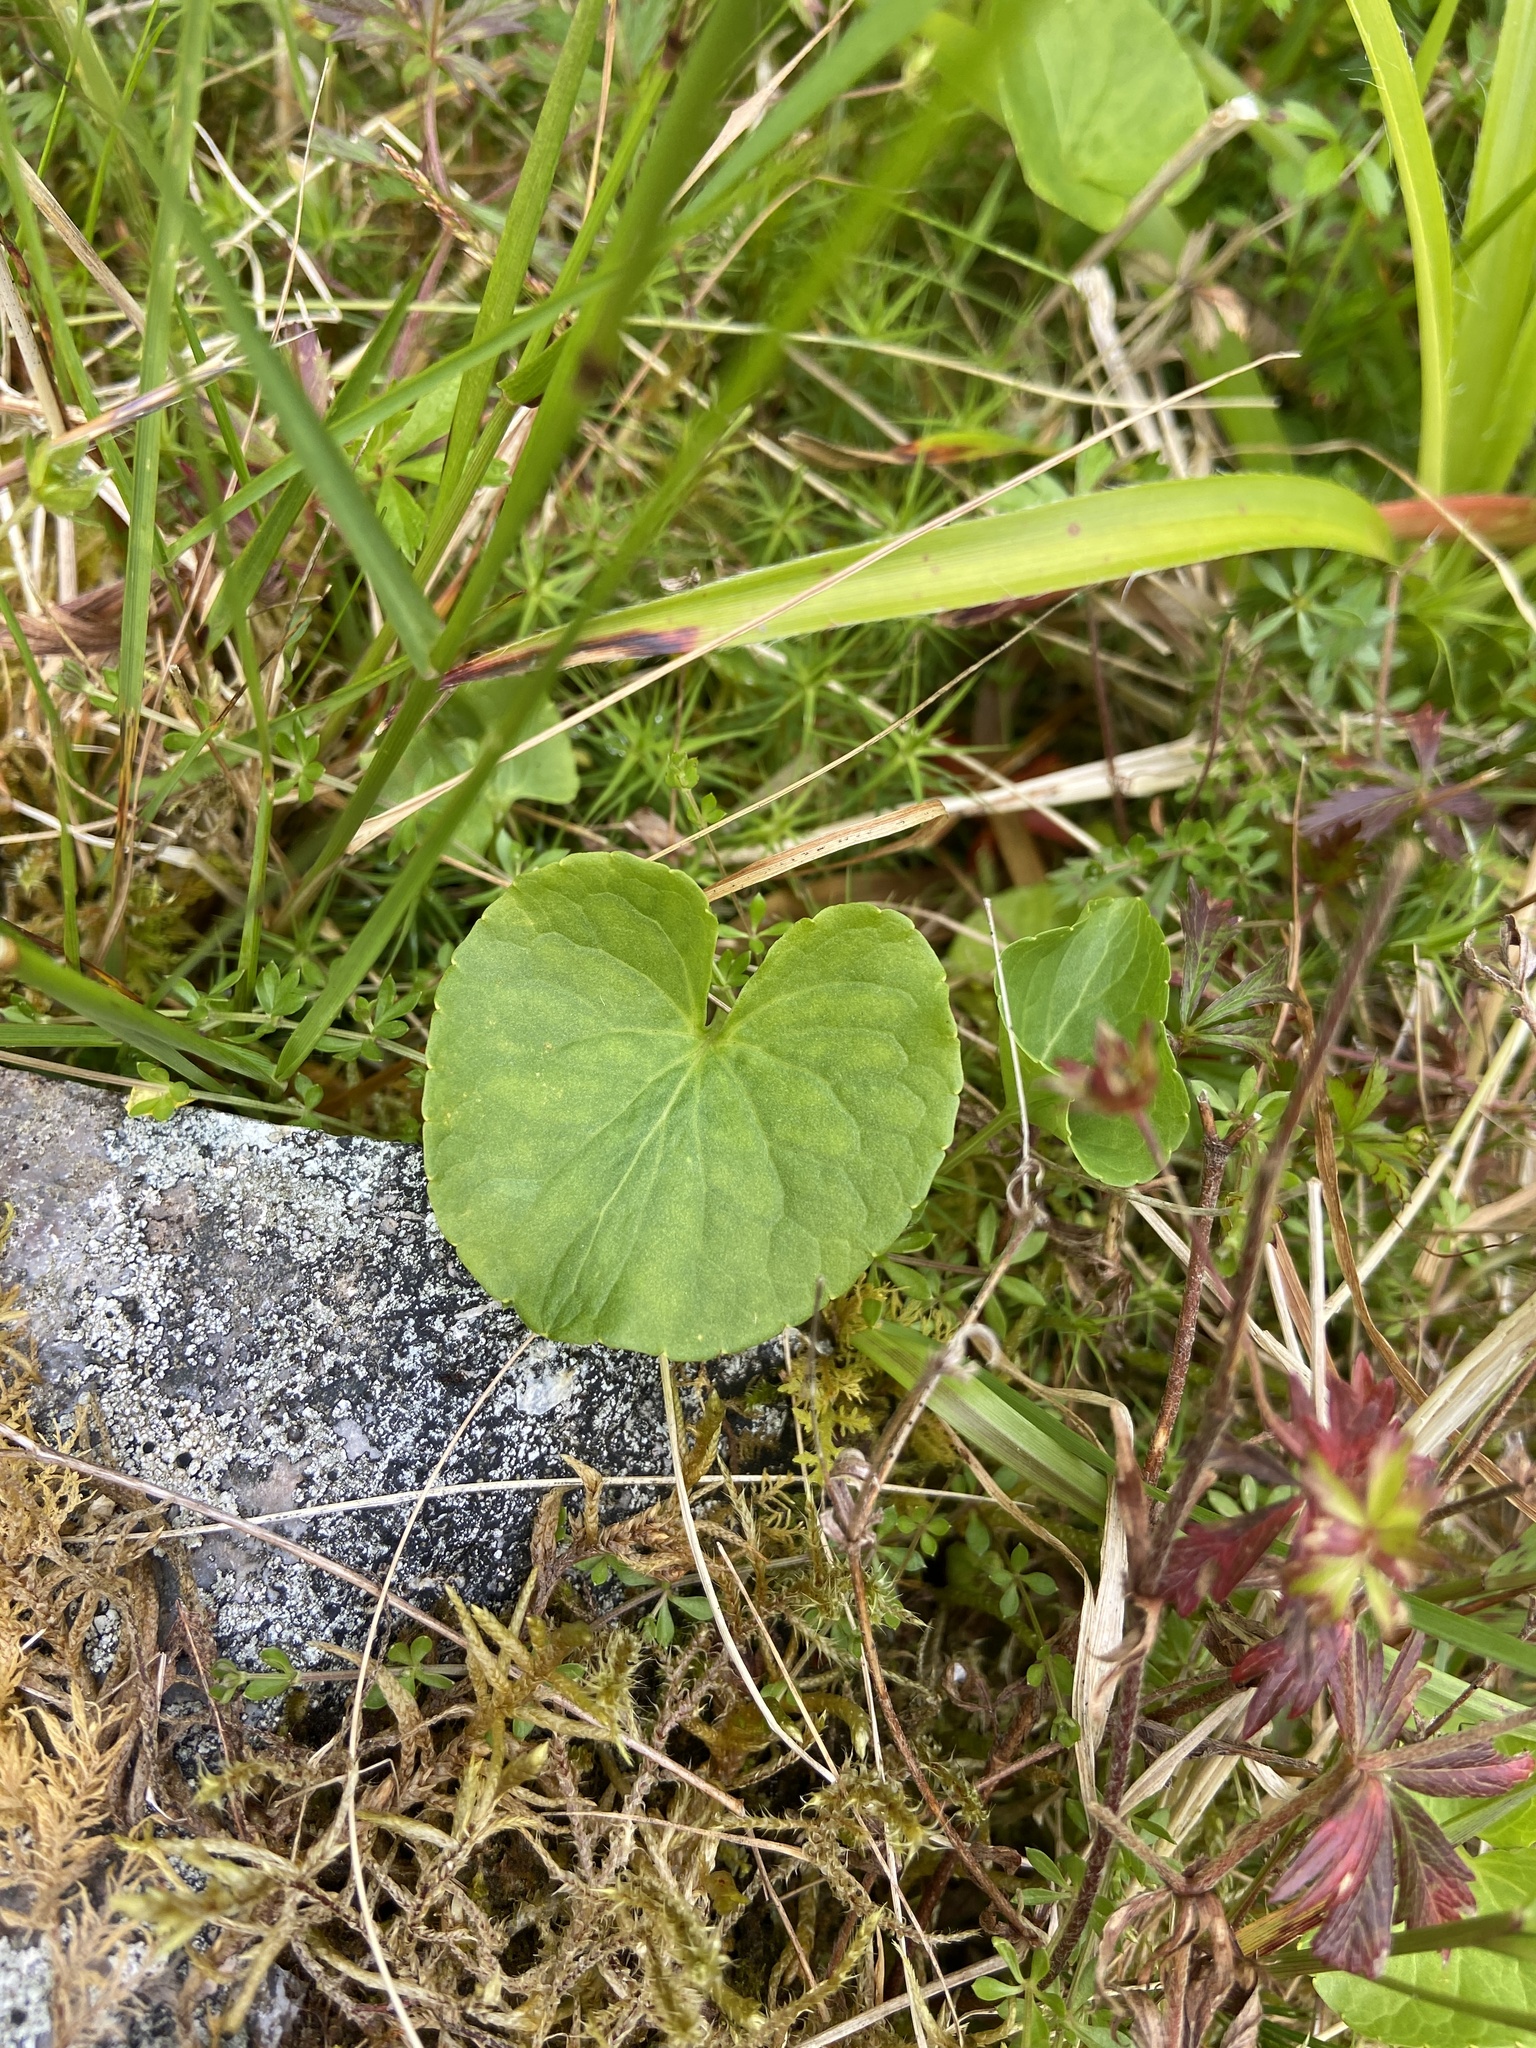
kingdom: Plantae
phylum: Tracheophyta
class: Magnoliopsida
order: Malpighiales
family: Violaceae
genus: Viola
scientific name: Viola palustris
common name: Marsh violet
